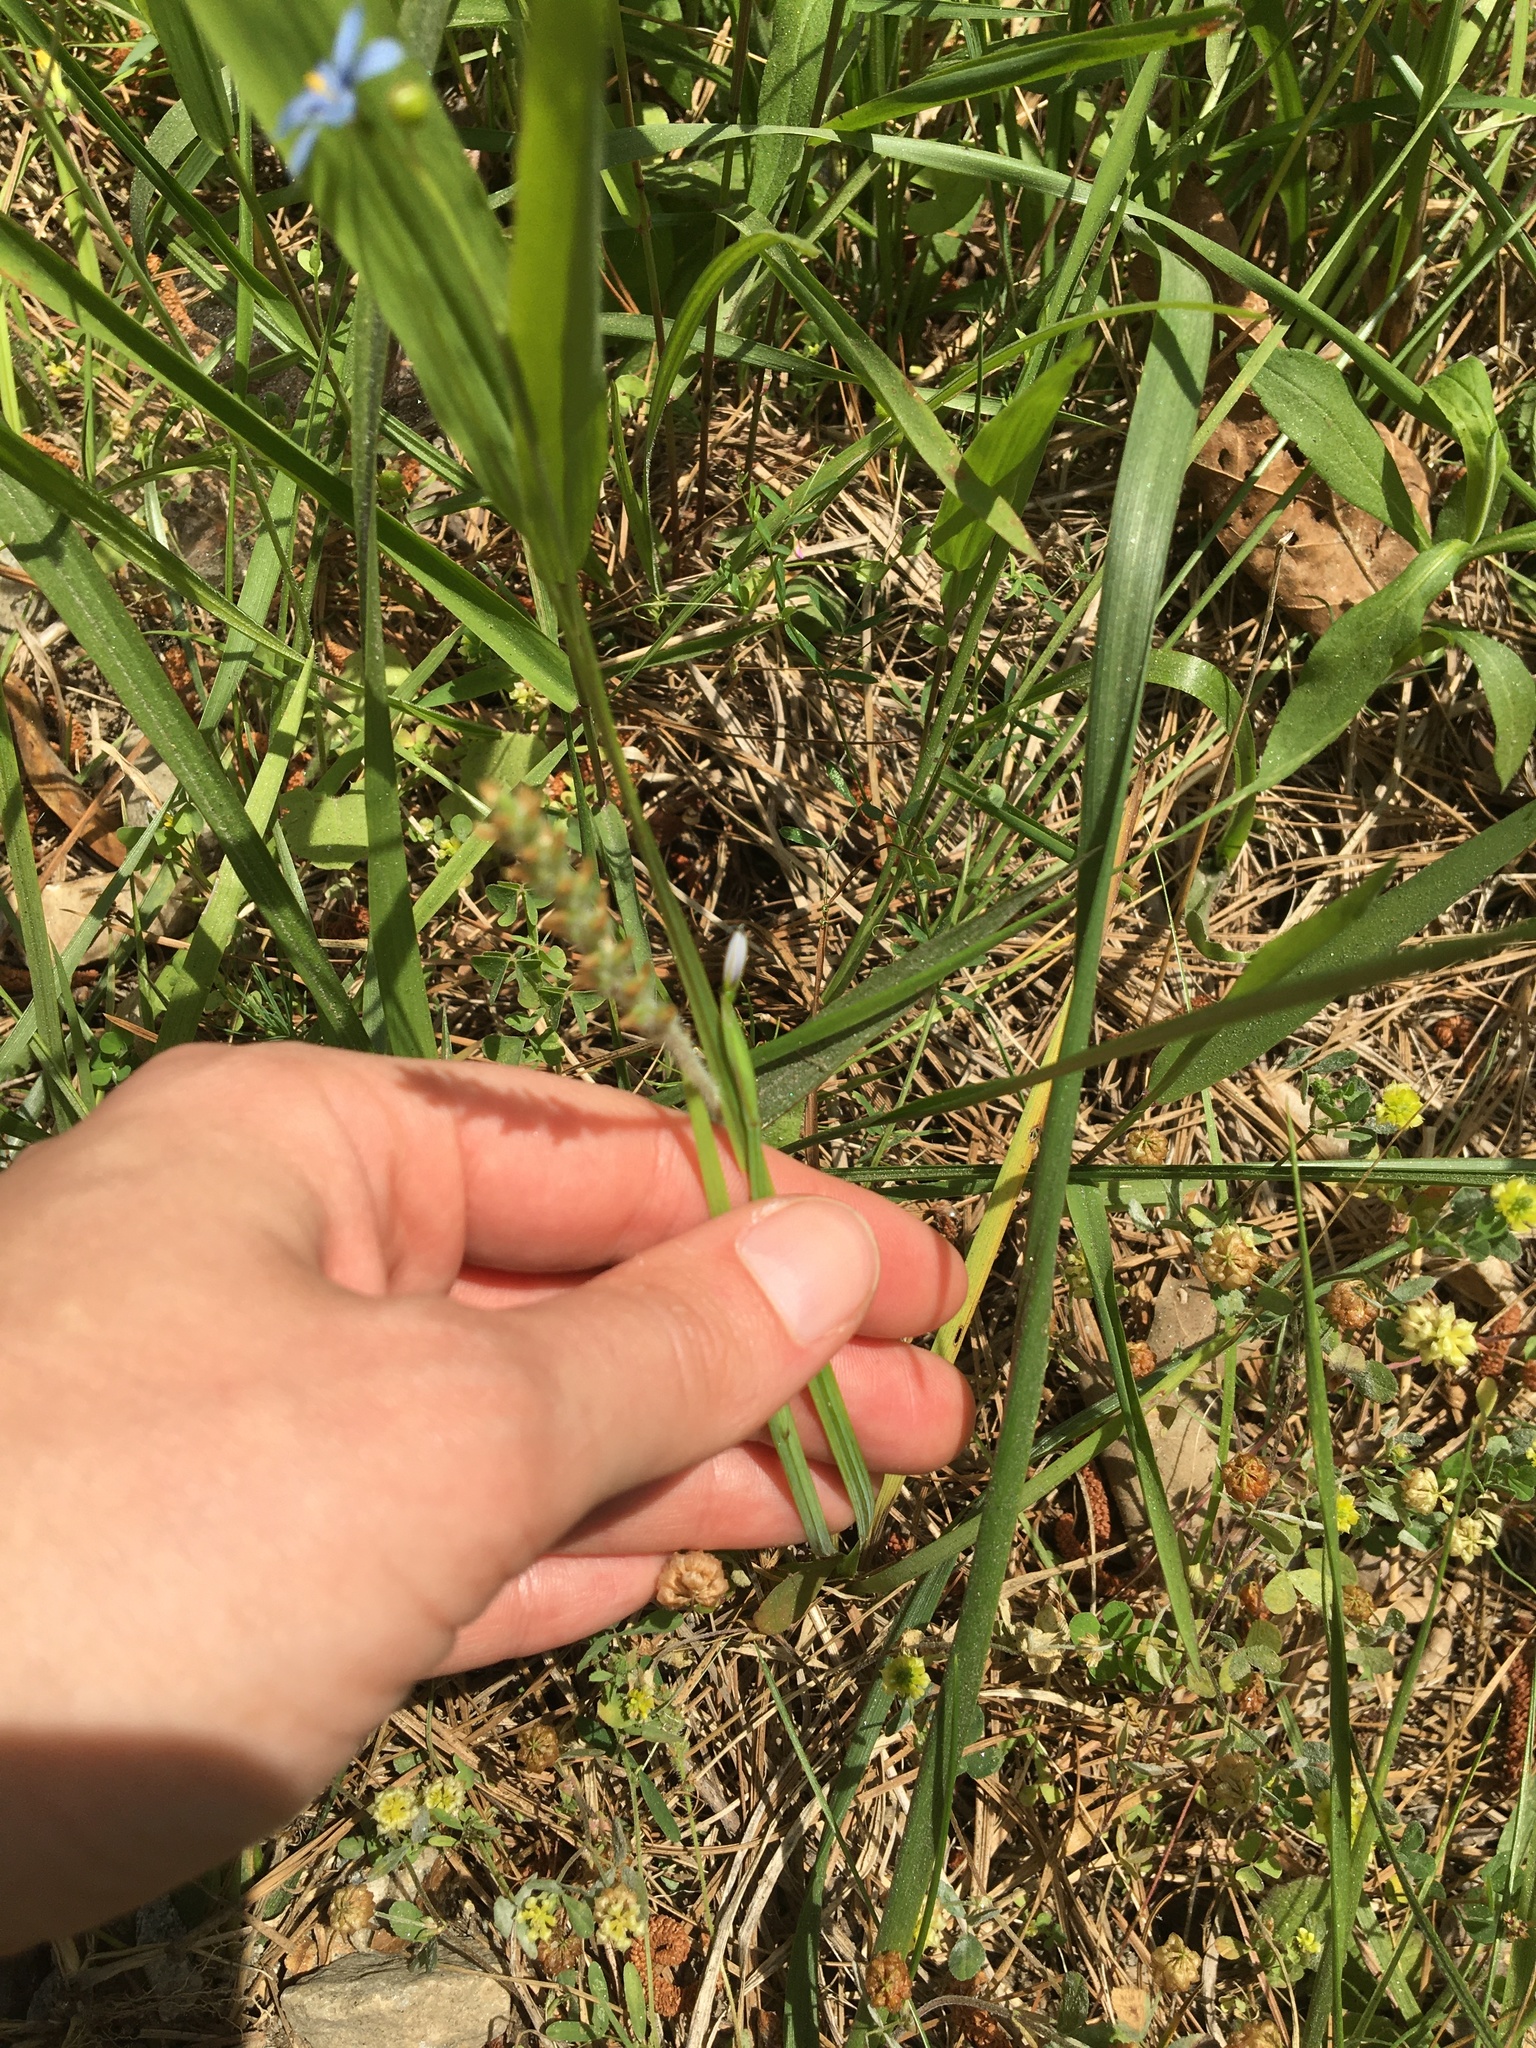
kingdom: Plantae
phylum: Tracheophyta
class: Liliopsida
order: Asparagales
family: Iridaceae
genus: Sisyrinchium
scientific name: Sisyrinchium angustifolium
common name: Narrow-leaf blue-eyed-grass
